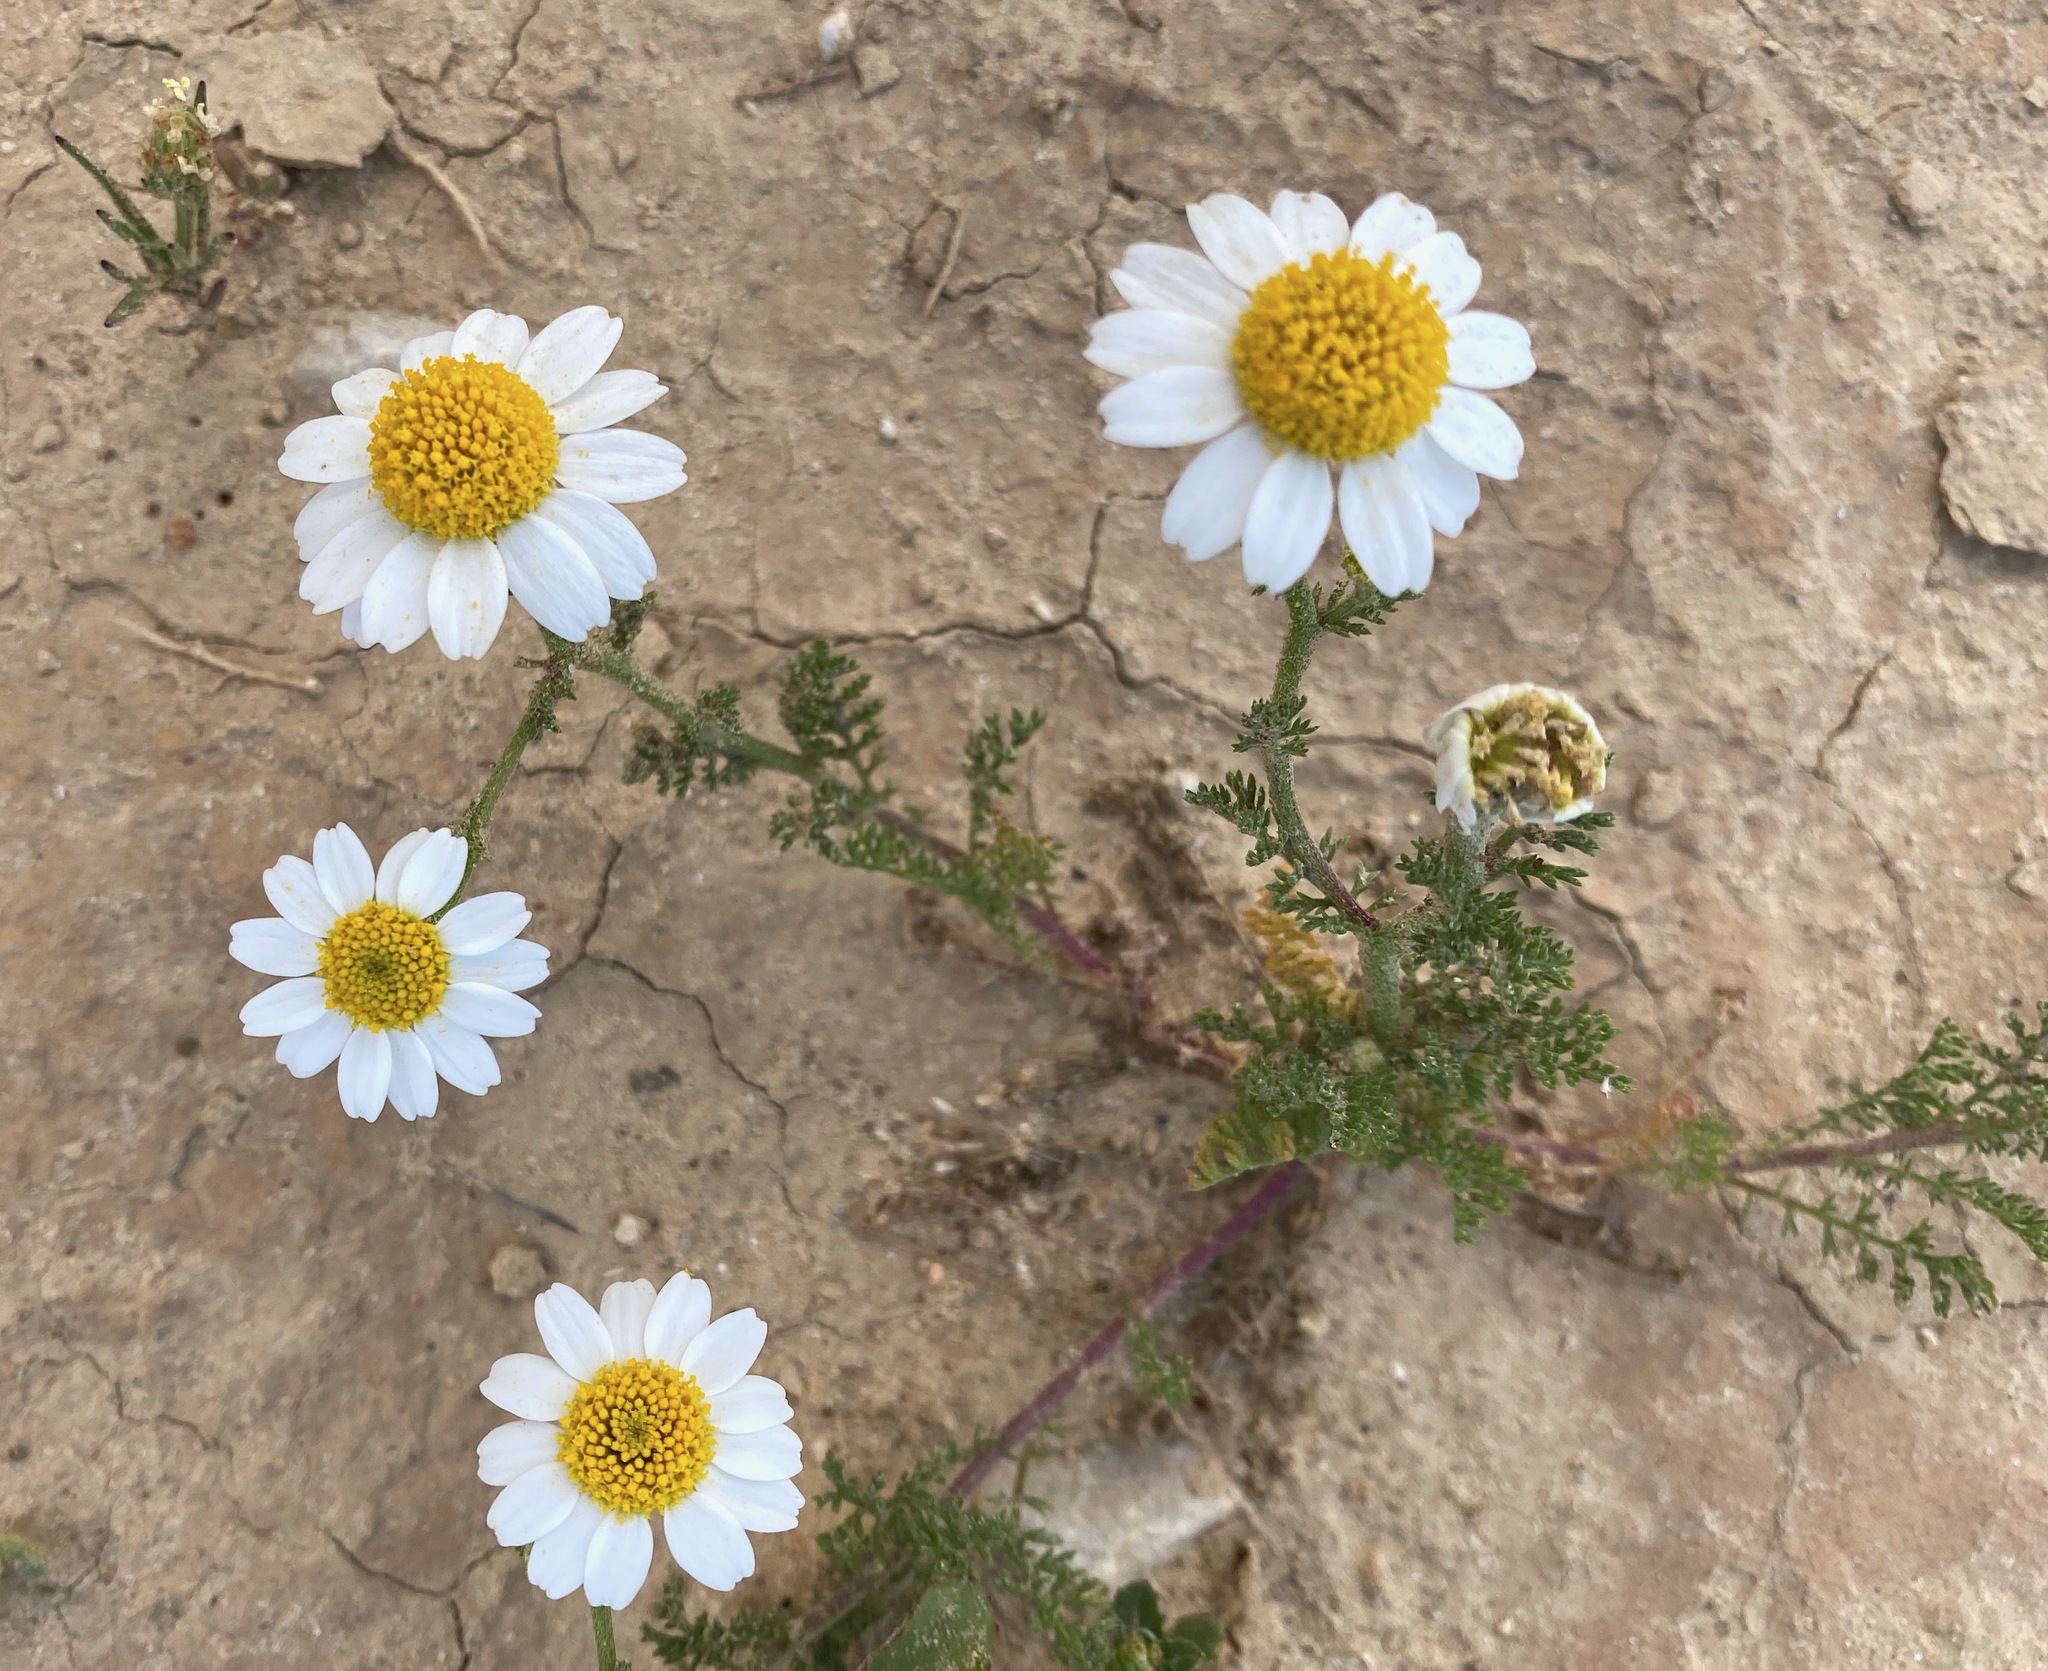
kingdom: Plantae
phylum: Tracheophyta
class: Magnoliopsida
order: Asterales
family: Asteraceae
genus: Anthemis
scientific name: Anthemis pseudocotula
